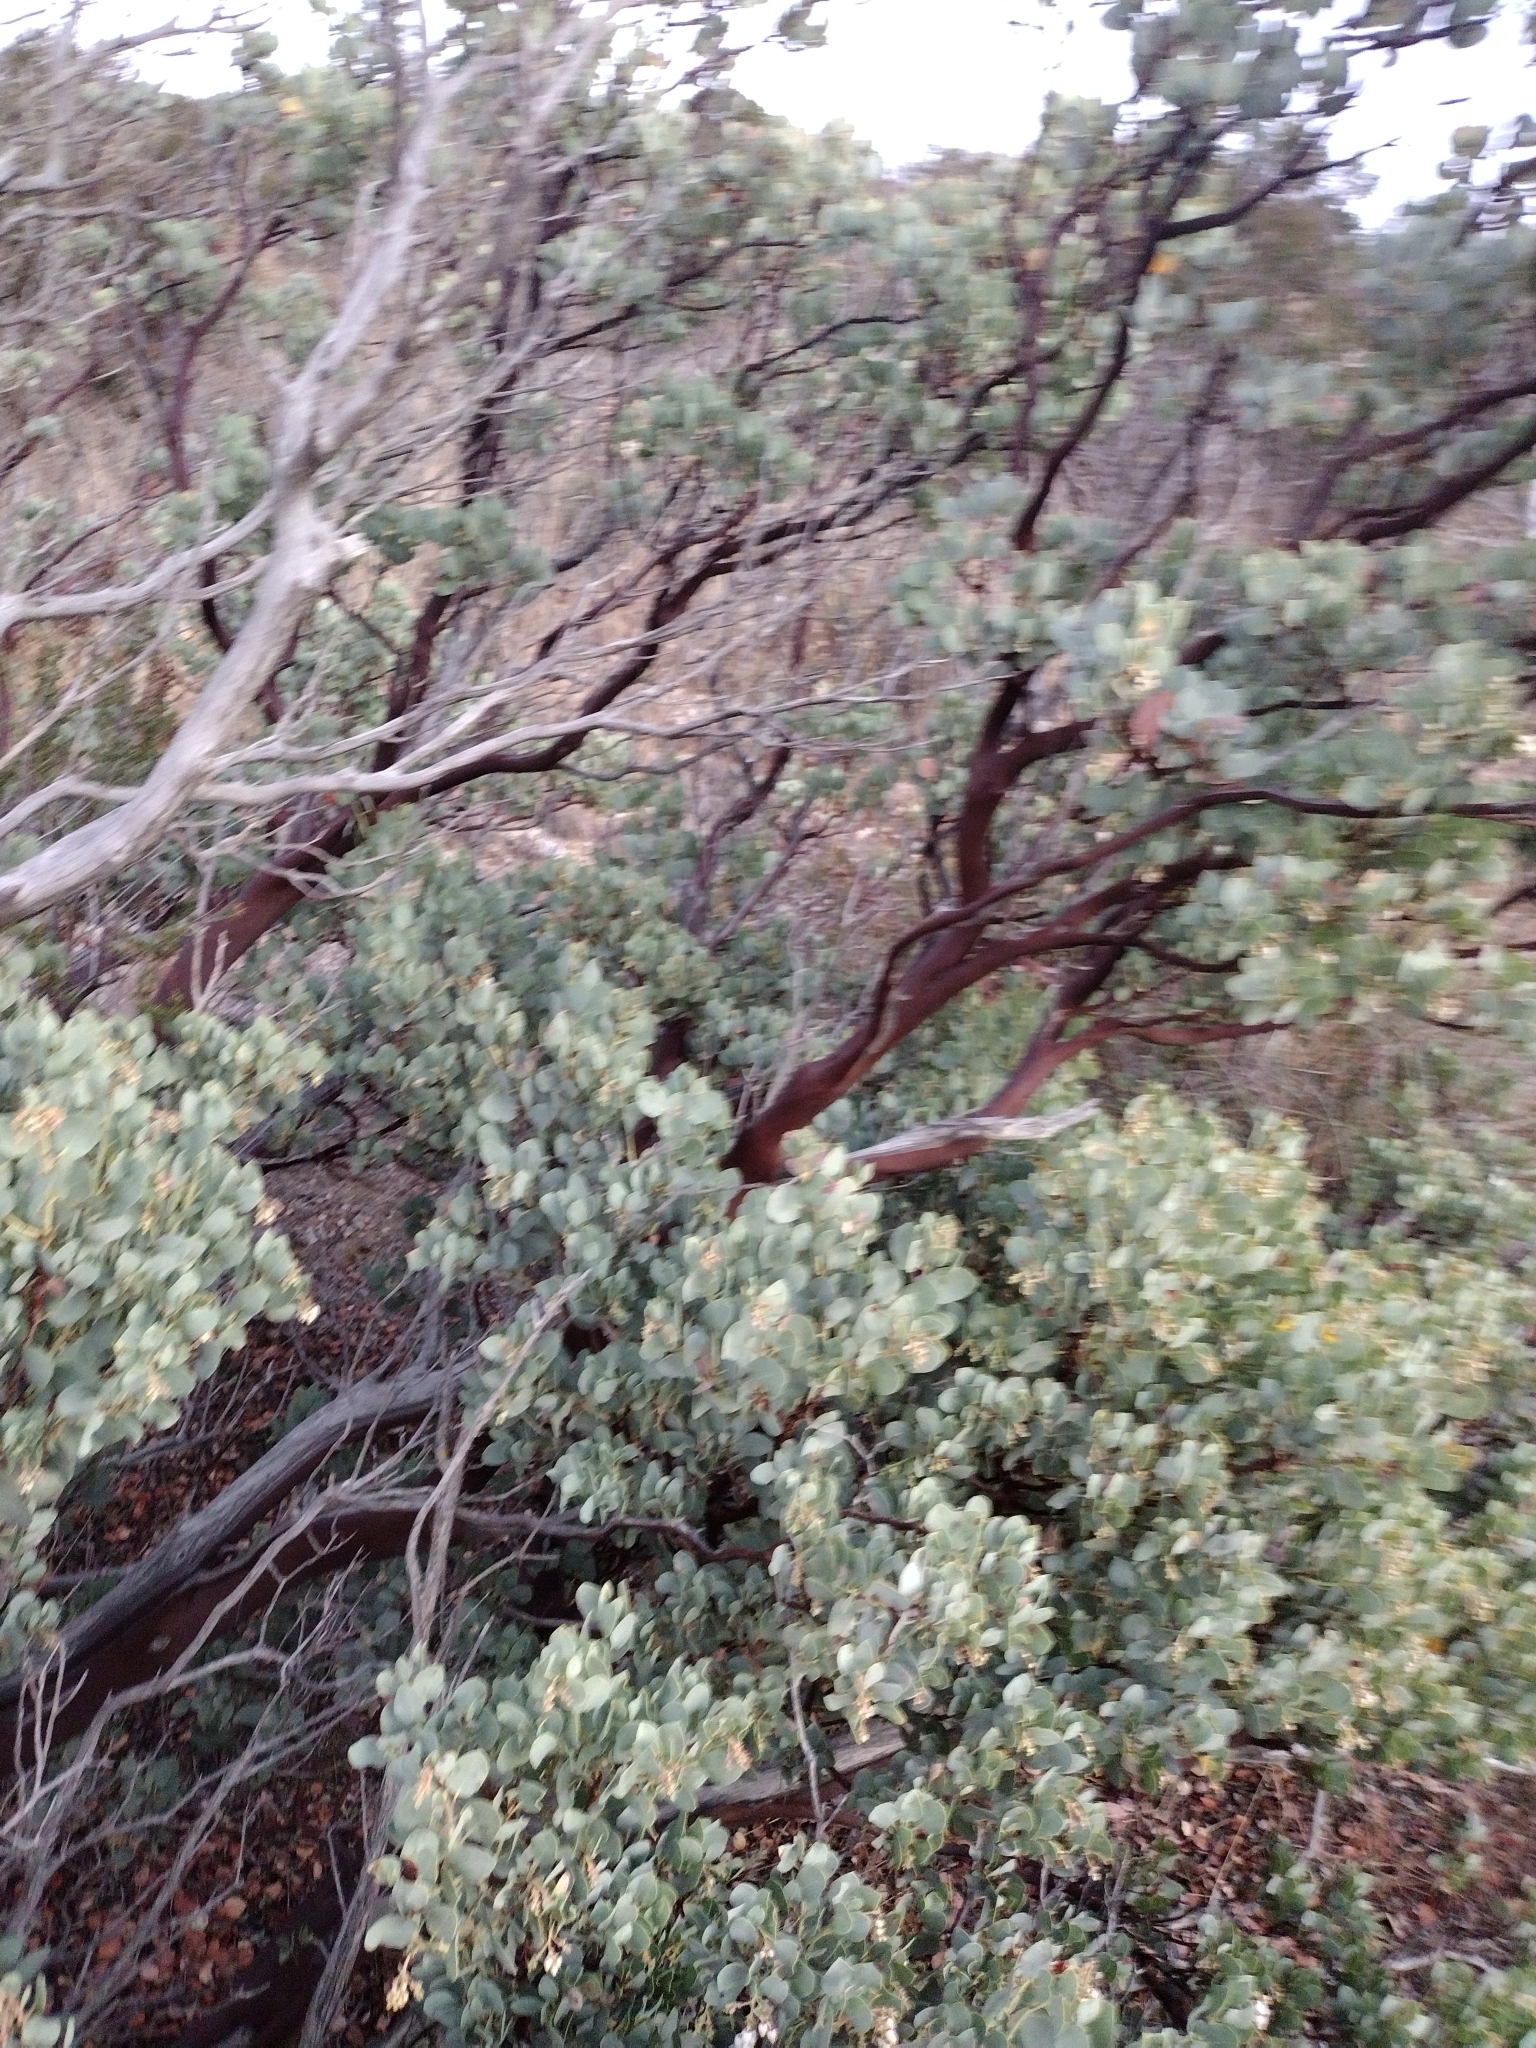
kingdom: Plantae
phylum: Tracheophyta
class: Magnoliopsida
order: Ericales
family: Ericaceae
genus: Arctostaphylos
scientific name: Arctostaphylos glauca
